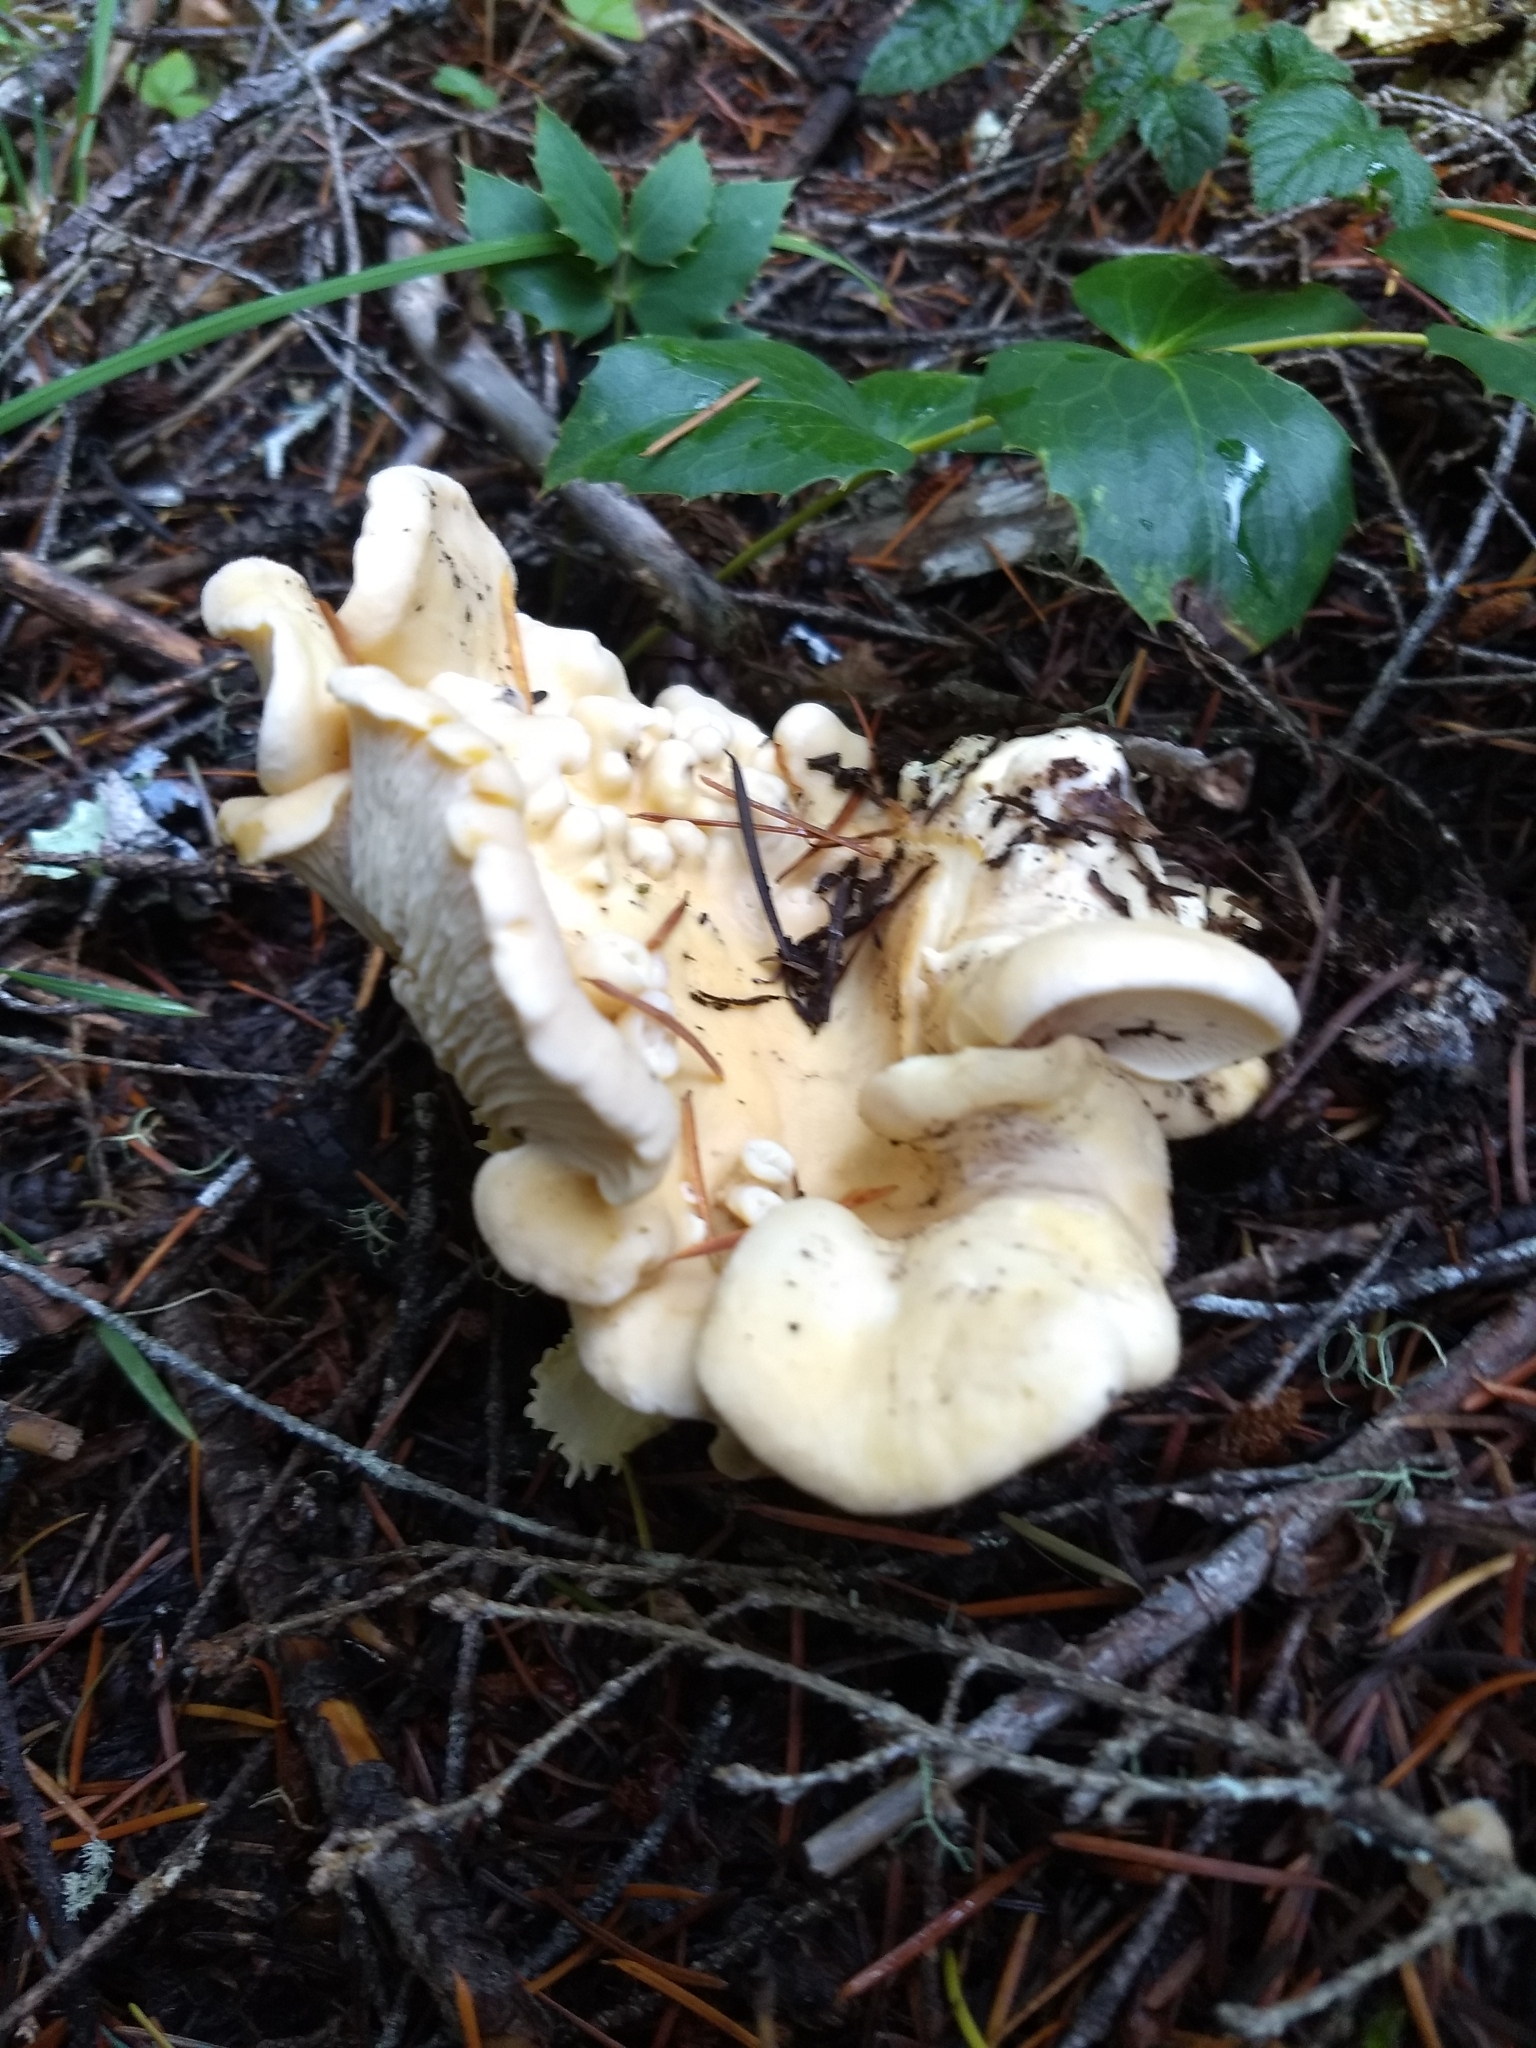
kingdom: Fungi
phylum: Basidiomycota
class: Agaricomycetes
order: Cantharellales
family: Hydnaceae
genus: Cantharellus
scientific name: Cantharellus subalbidus
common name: White chanterelle
